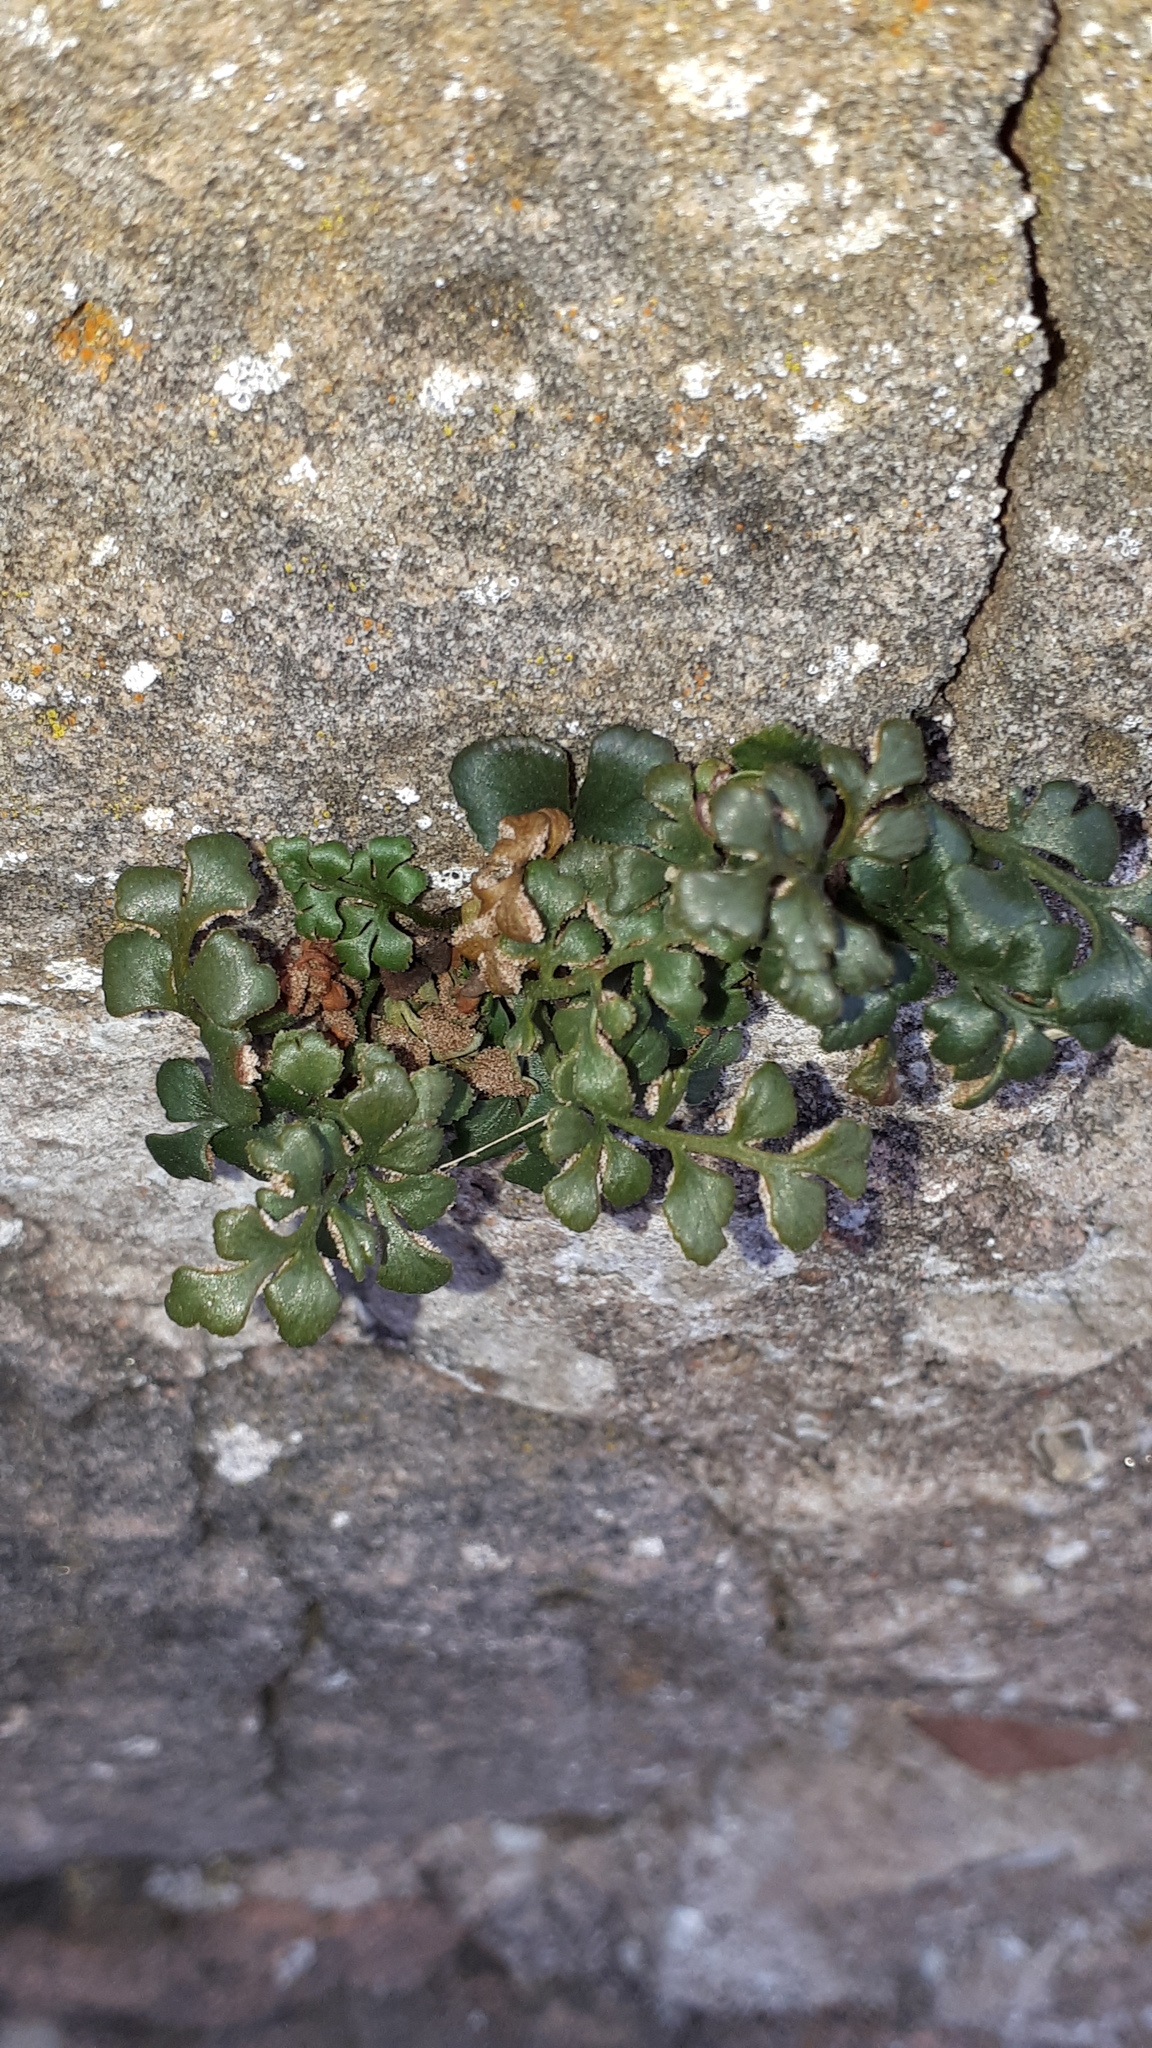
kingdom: Plantae
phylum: Tracheophyta
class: Polypodiopsida
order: Polypodiales
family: Aspleniaceae
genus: Asplenium
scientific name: Asplenium ruta-muraria
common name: Wall-rue
